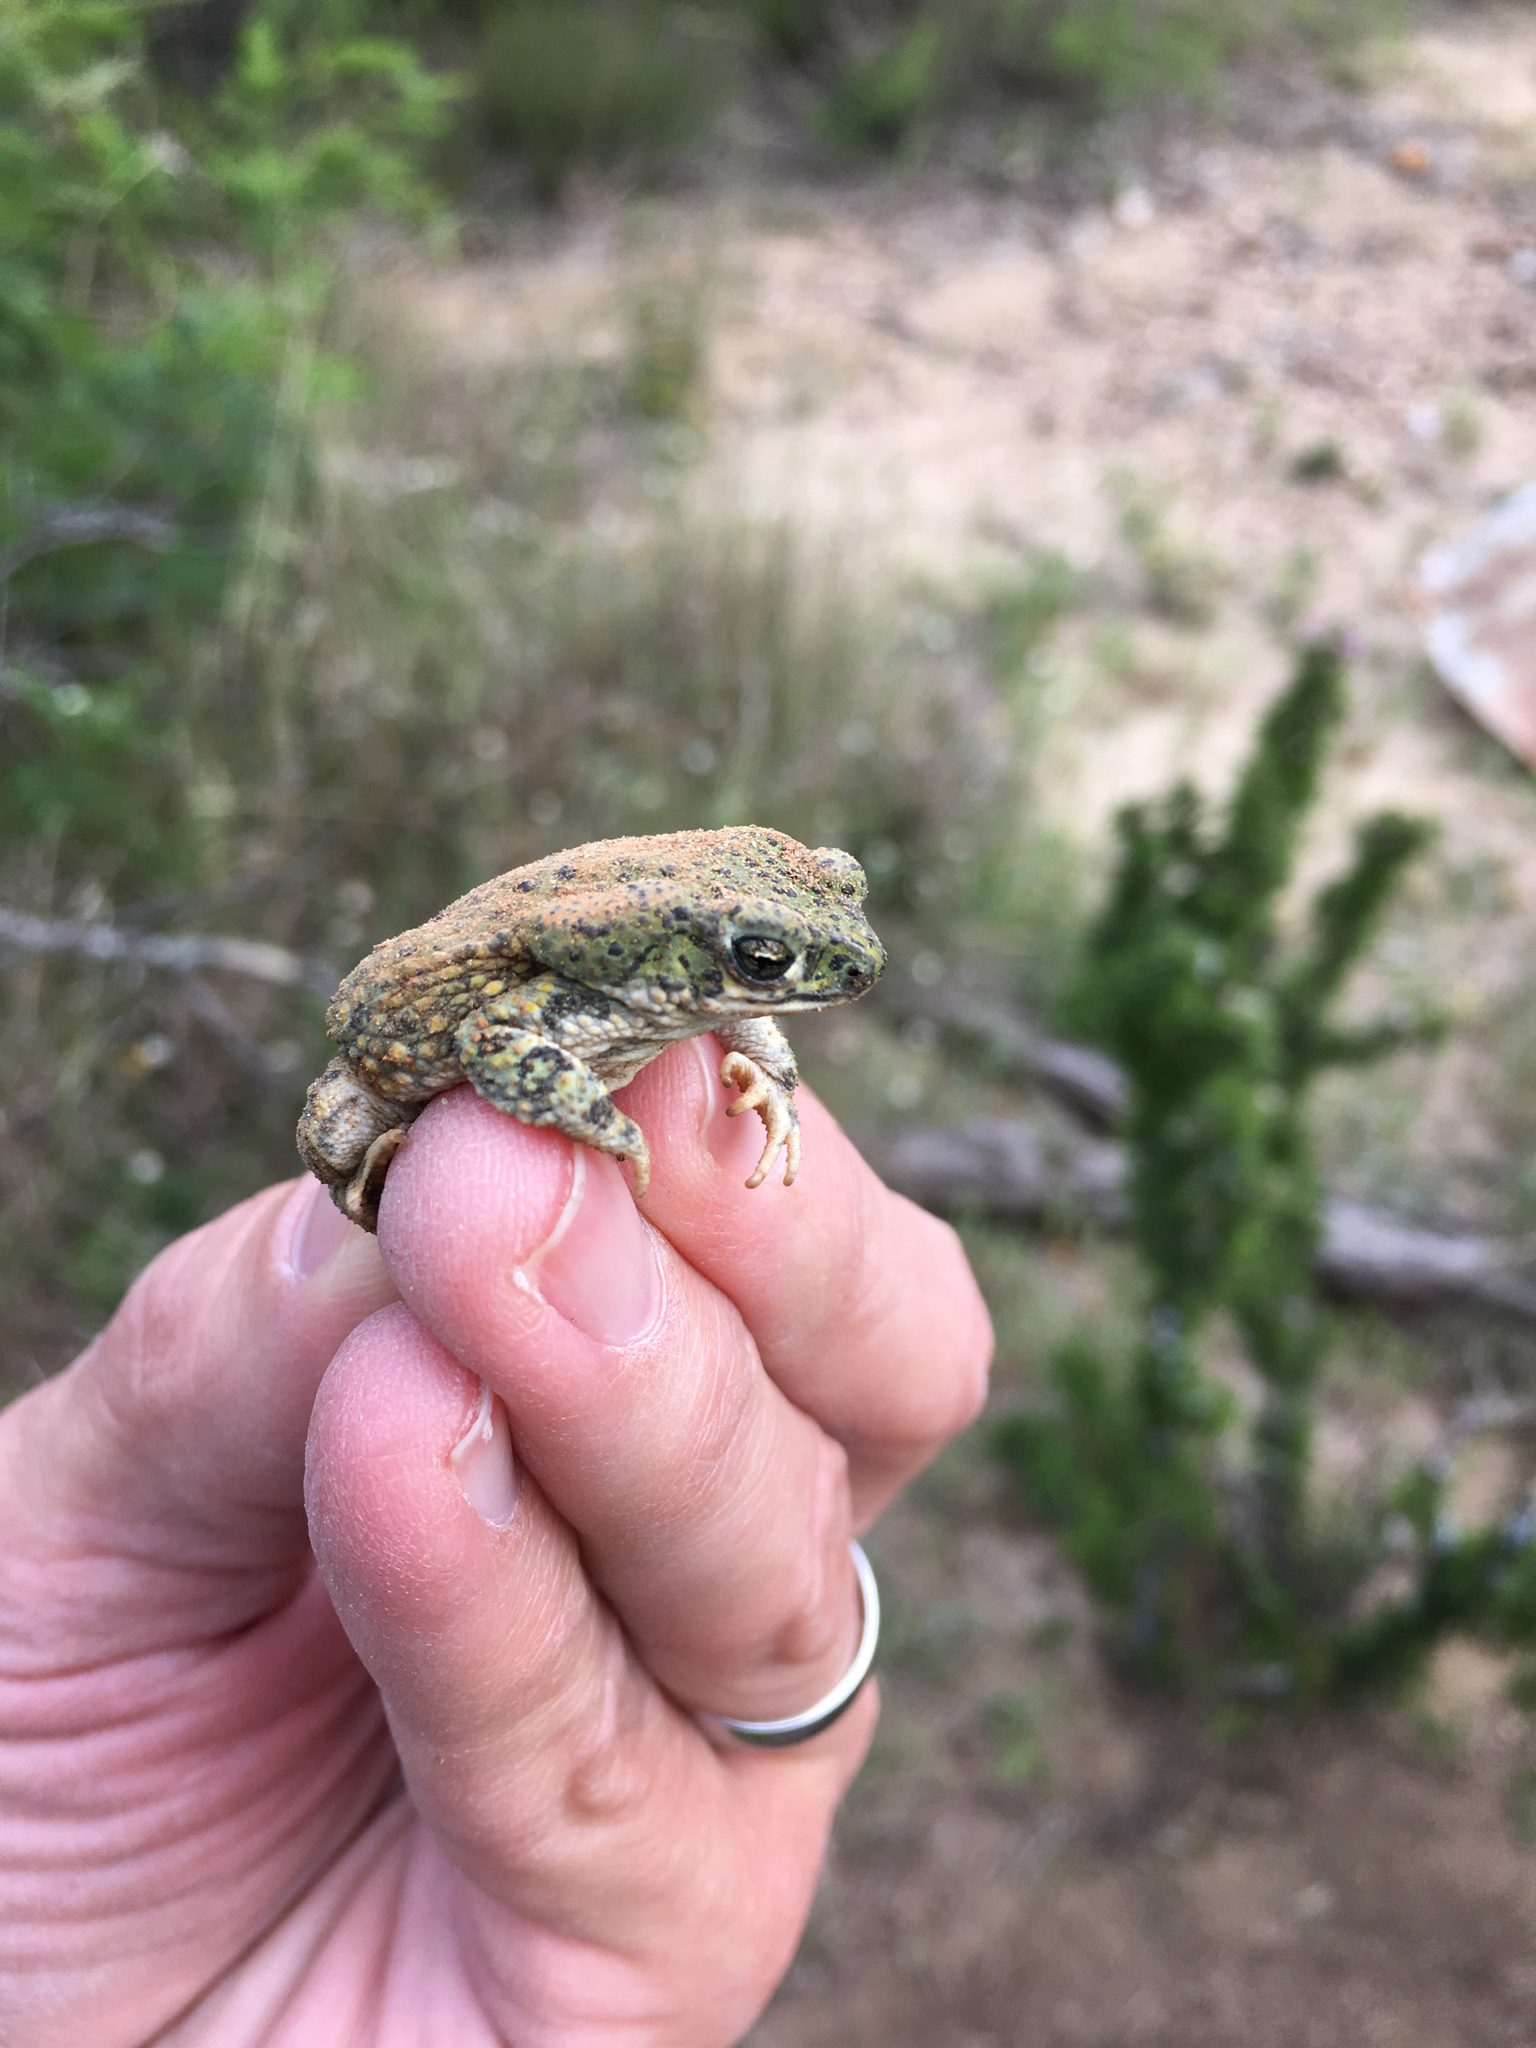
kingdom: Animalia
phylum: Chordata
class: Amphibia
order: Anura
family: Bufonidae
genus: Anaxyrus
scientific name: Anaxyrus debilis
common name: Green toad
